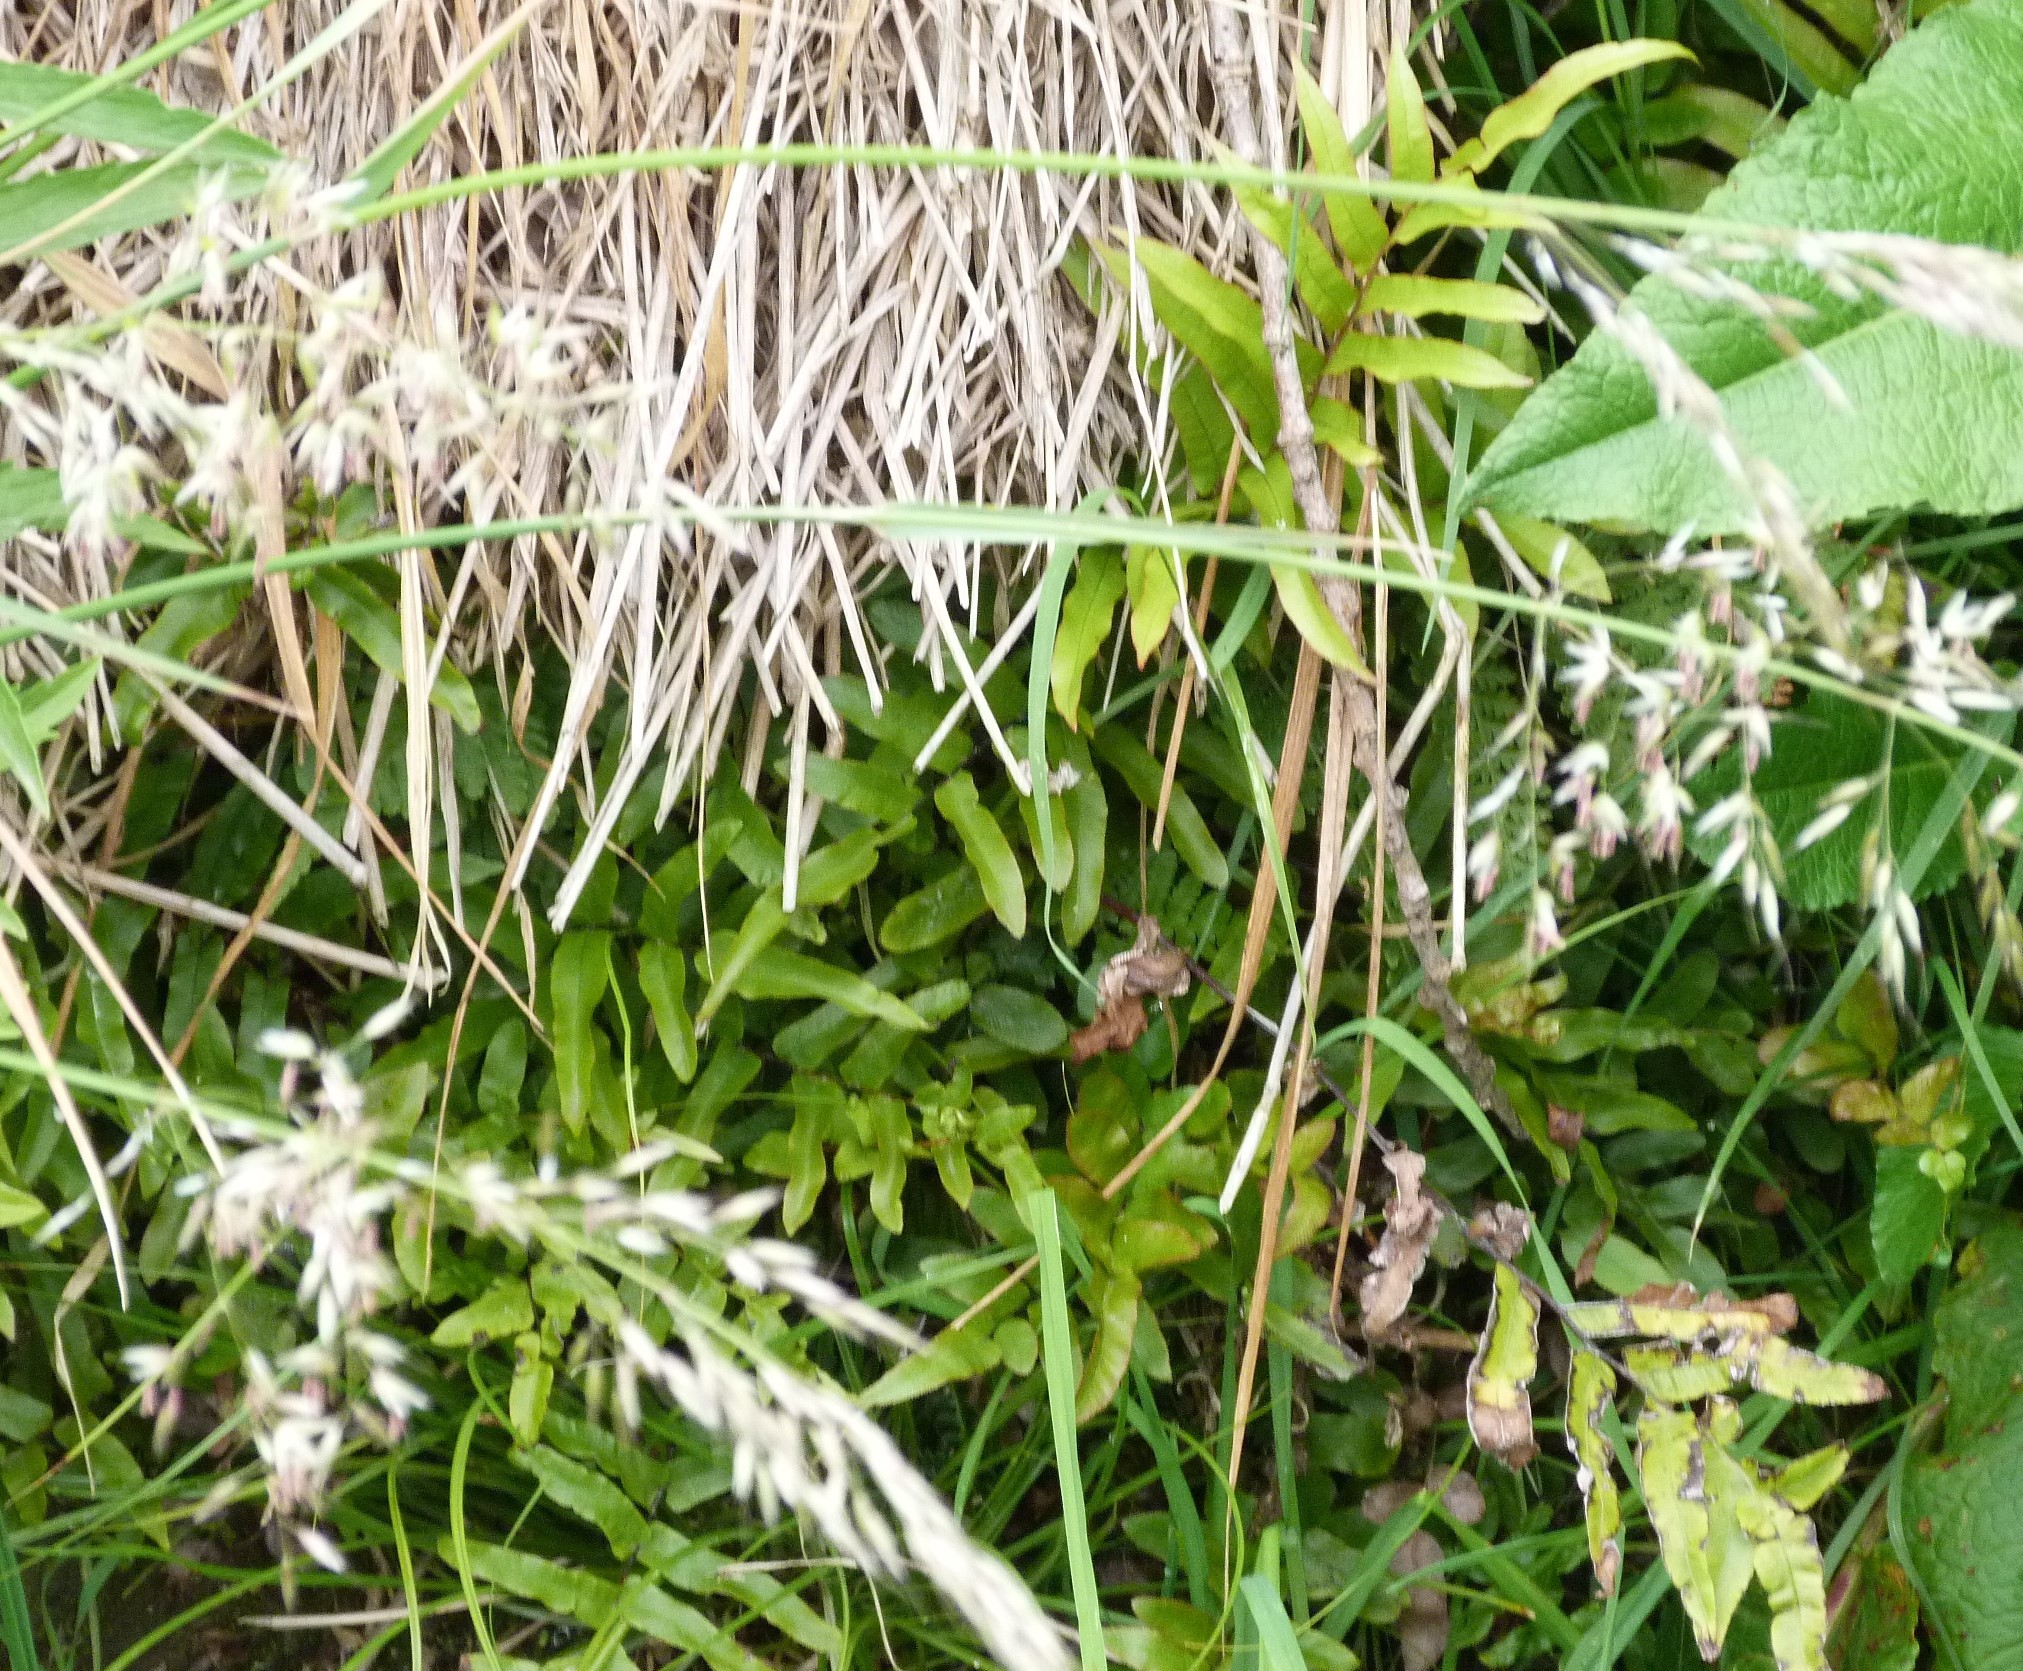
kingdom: Plantae
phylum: Tracheophyta
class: Polypodiopsida
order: Polypodiales
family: Blechnaceae
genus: Parablechnum
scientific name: Parablechnum minus
